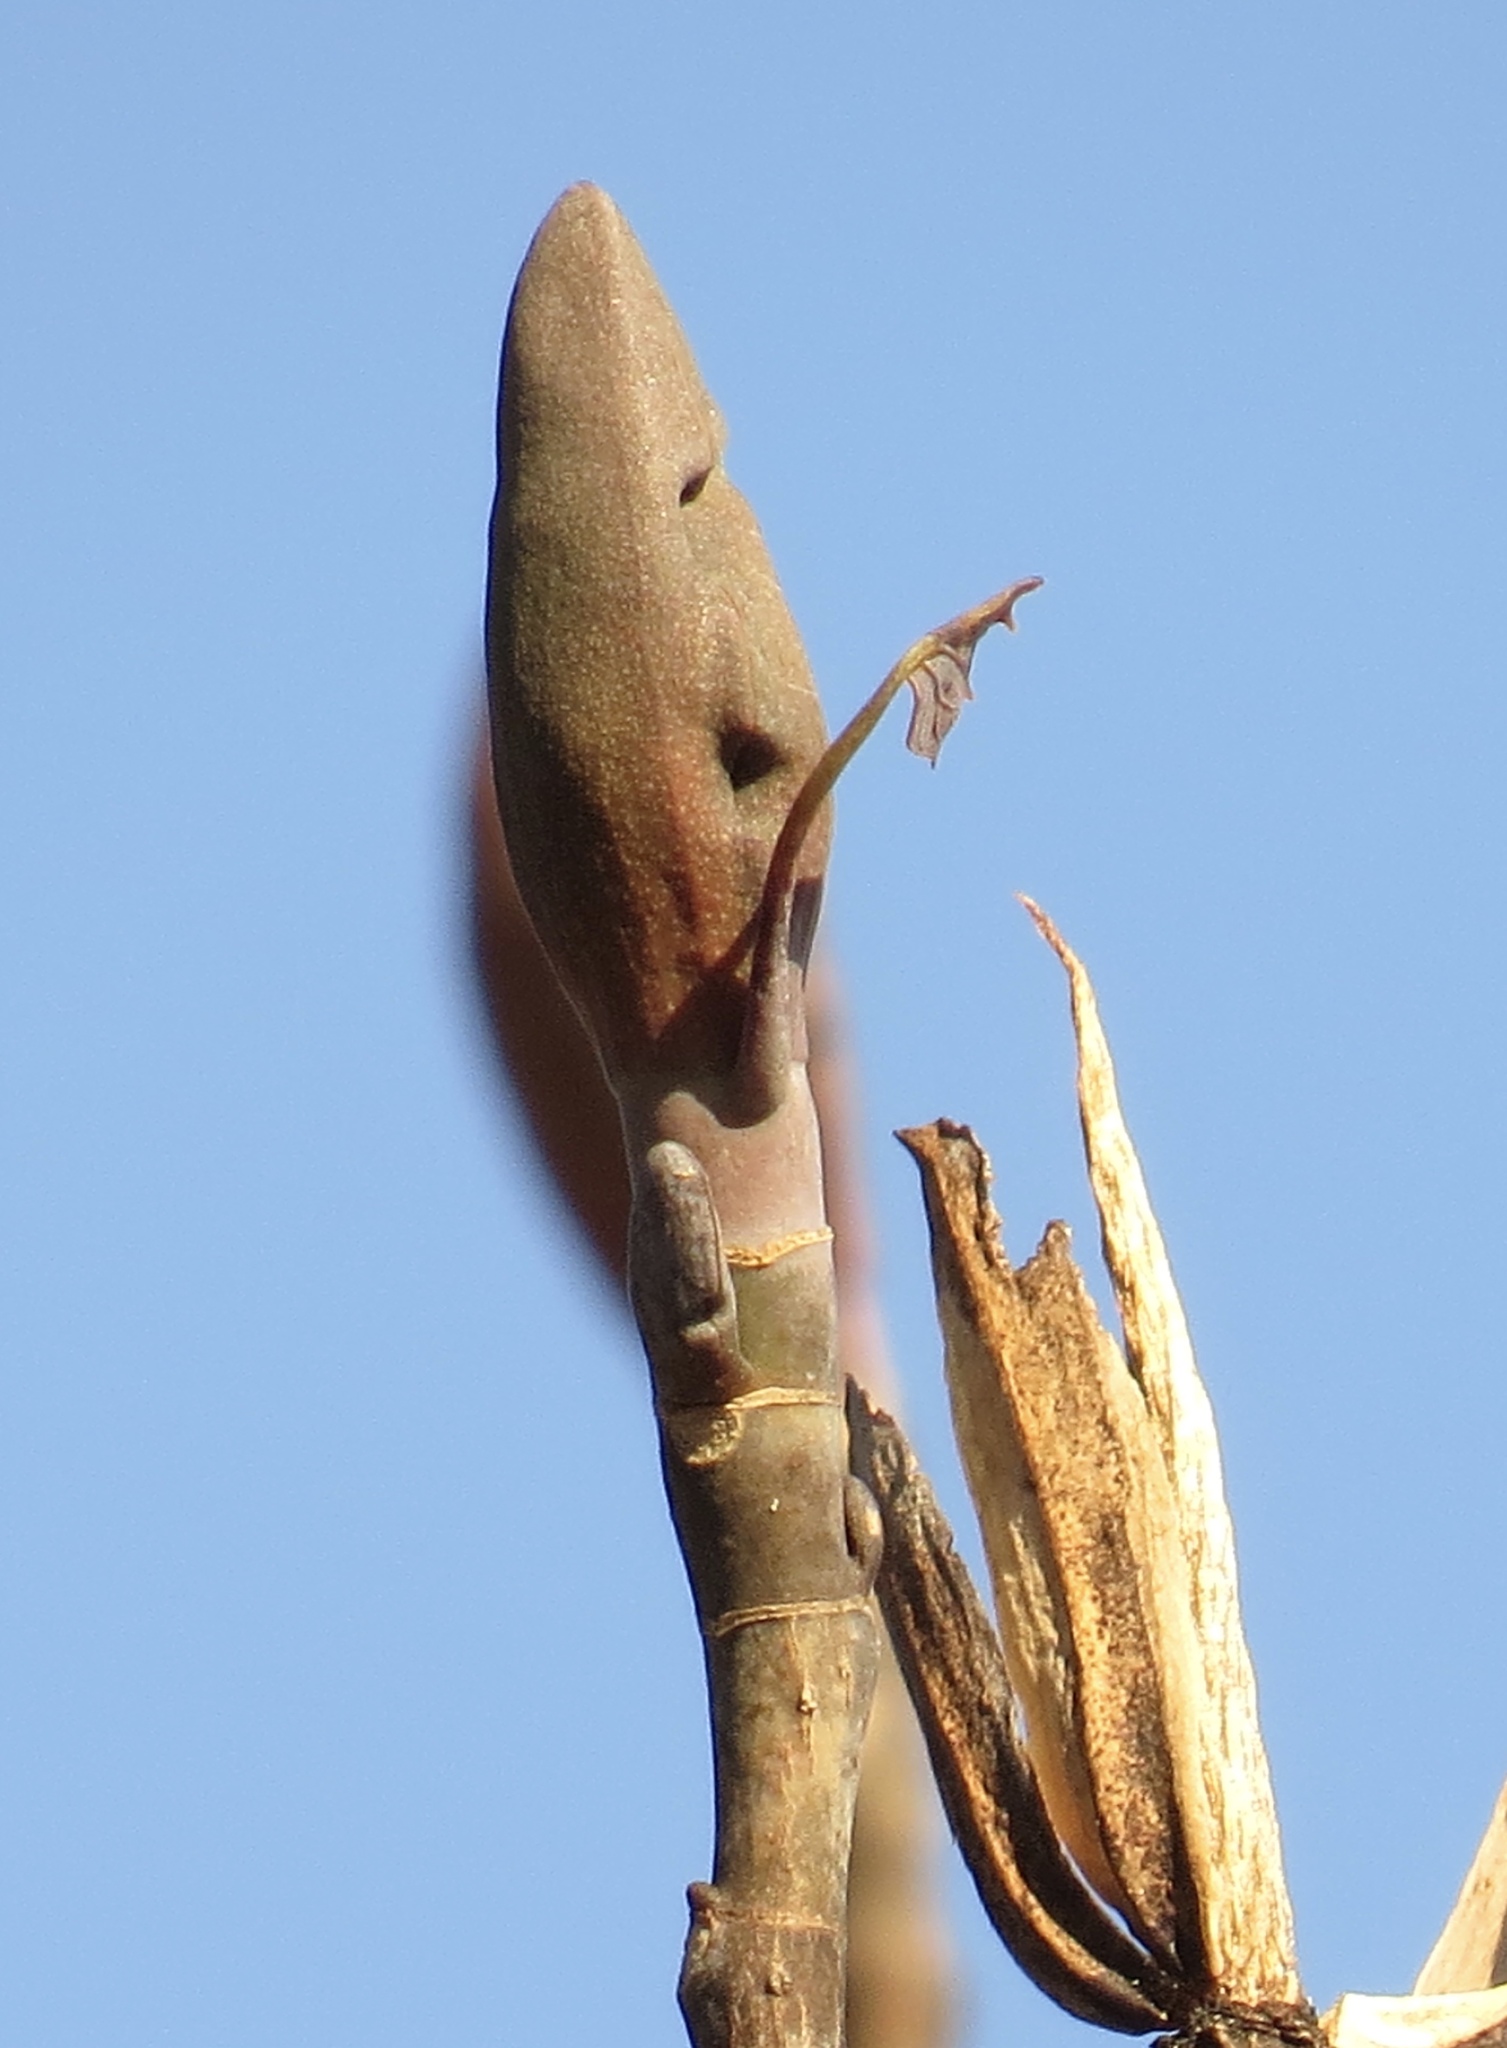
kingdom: Plantae
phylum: Tracheophyta
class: Magnoliopsida
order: Magnoliales
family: Magnoliaceae
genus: Liriodendron
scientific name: Liriodendron tulipifera
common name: Tulip tree
